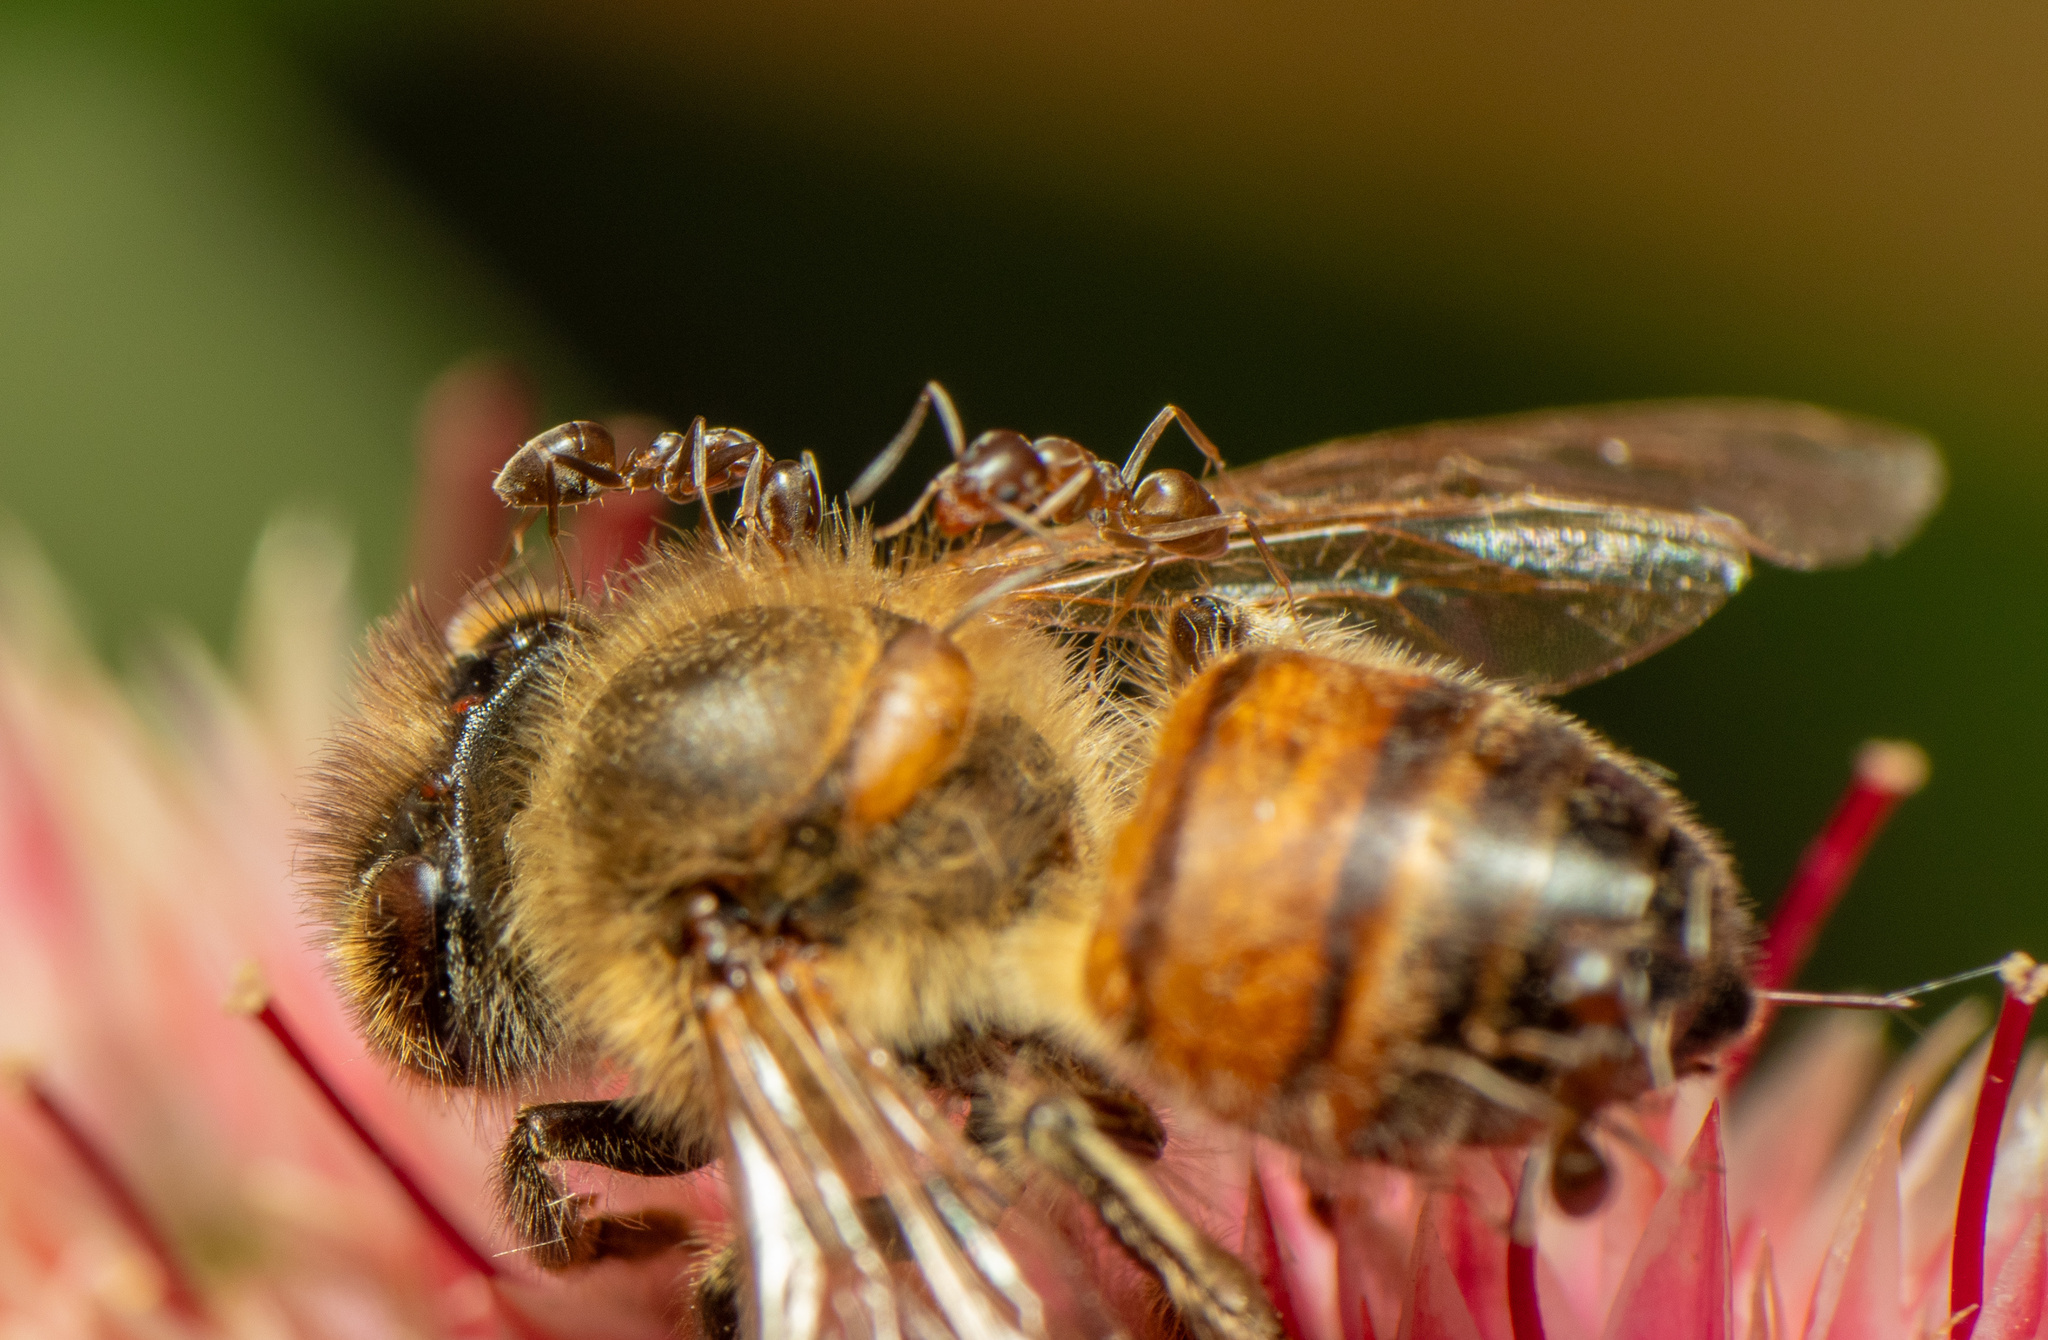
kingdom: Animalia
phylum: Arthropoda
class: Insecta
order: Hymenoptera
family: Apidae
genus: Apis
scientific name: Apis mellifera
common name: Honey bee
